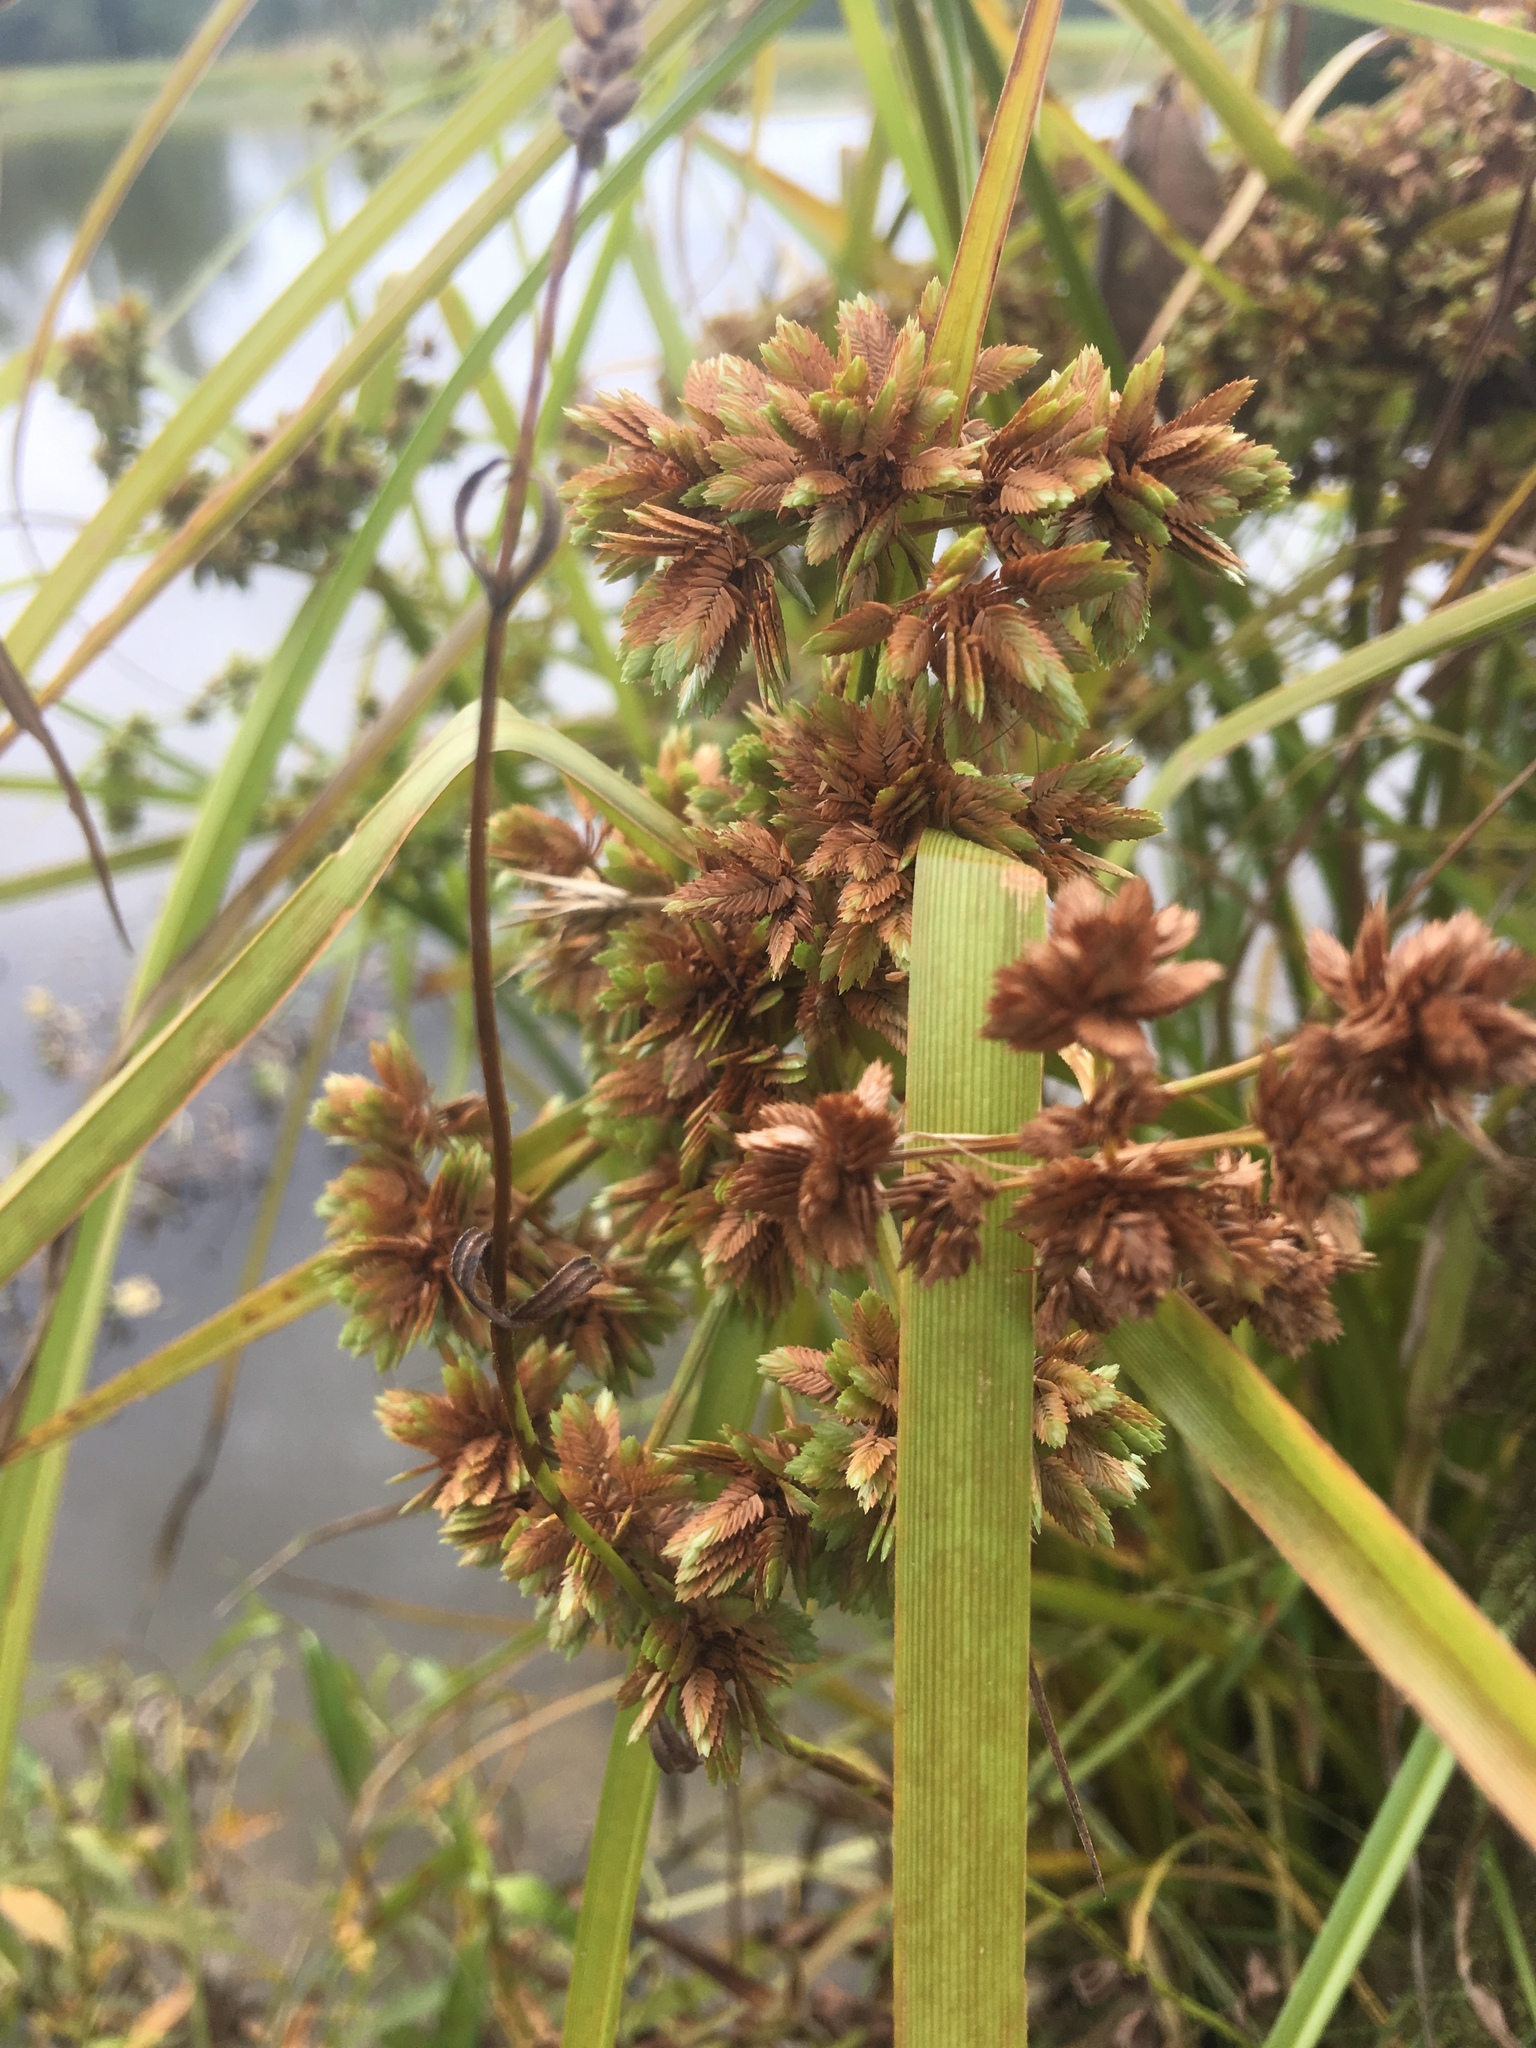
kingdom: Plantae
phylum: Tracheophyta
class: Liliopsida
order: Poales
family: Cyperaceae
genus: Cyperus
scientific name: Cyperus virens
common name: Green flatsedge
